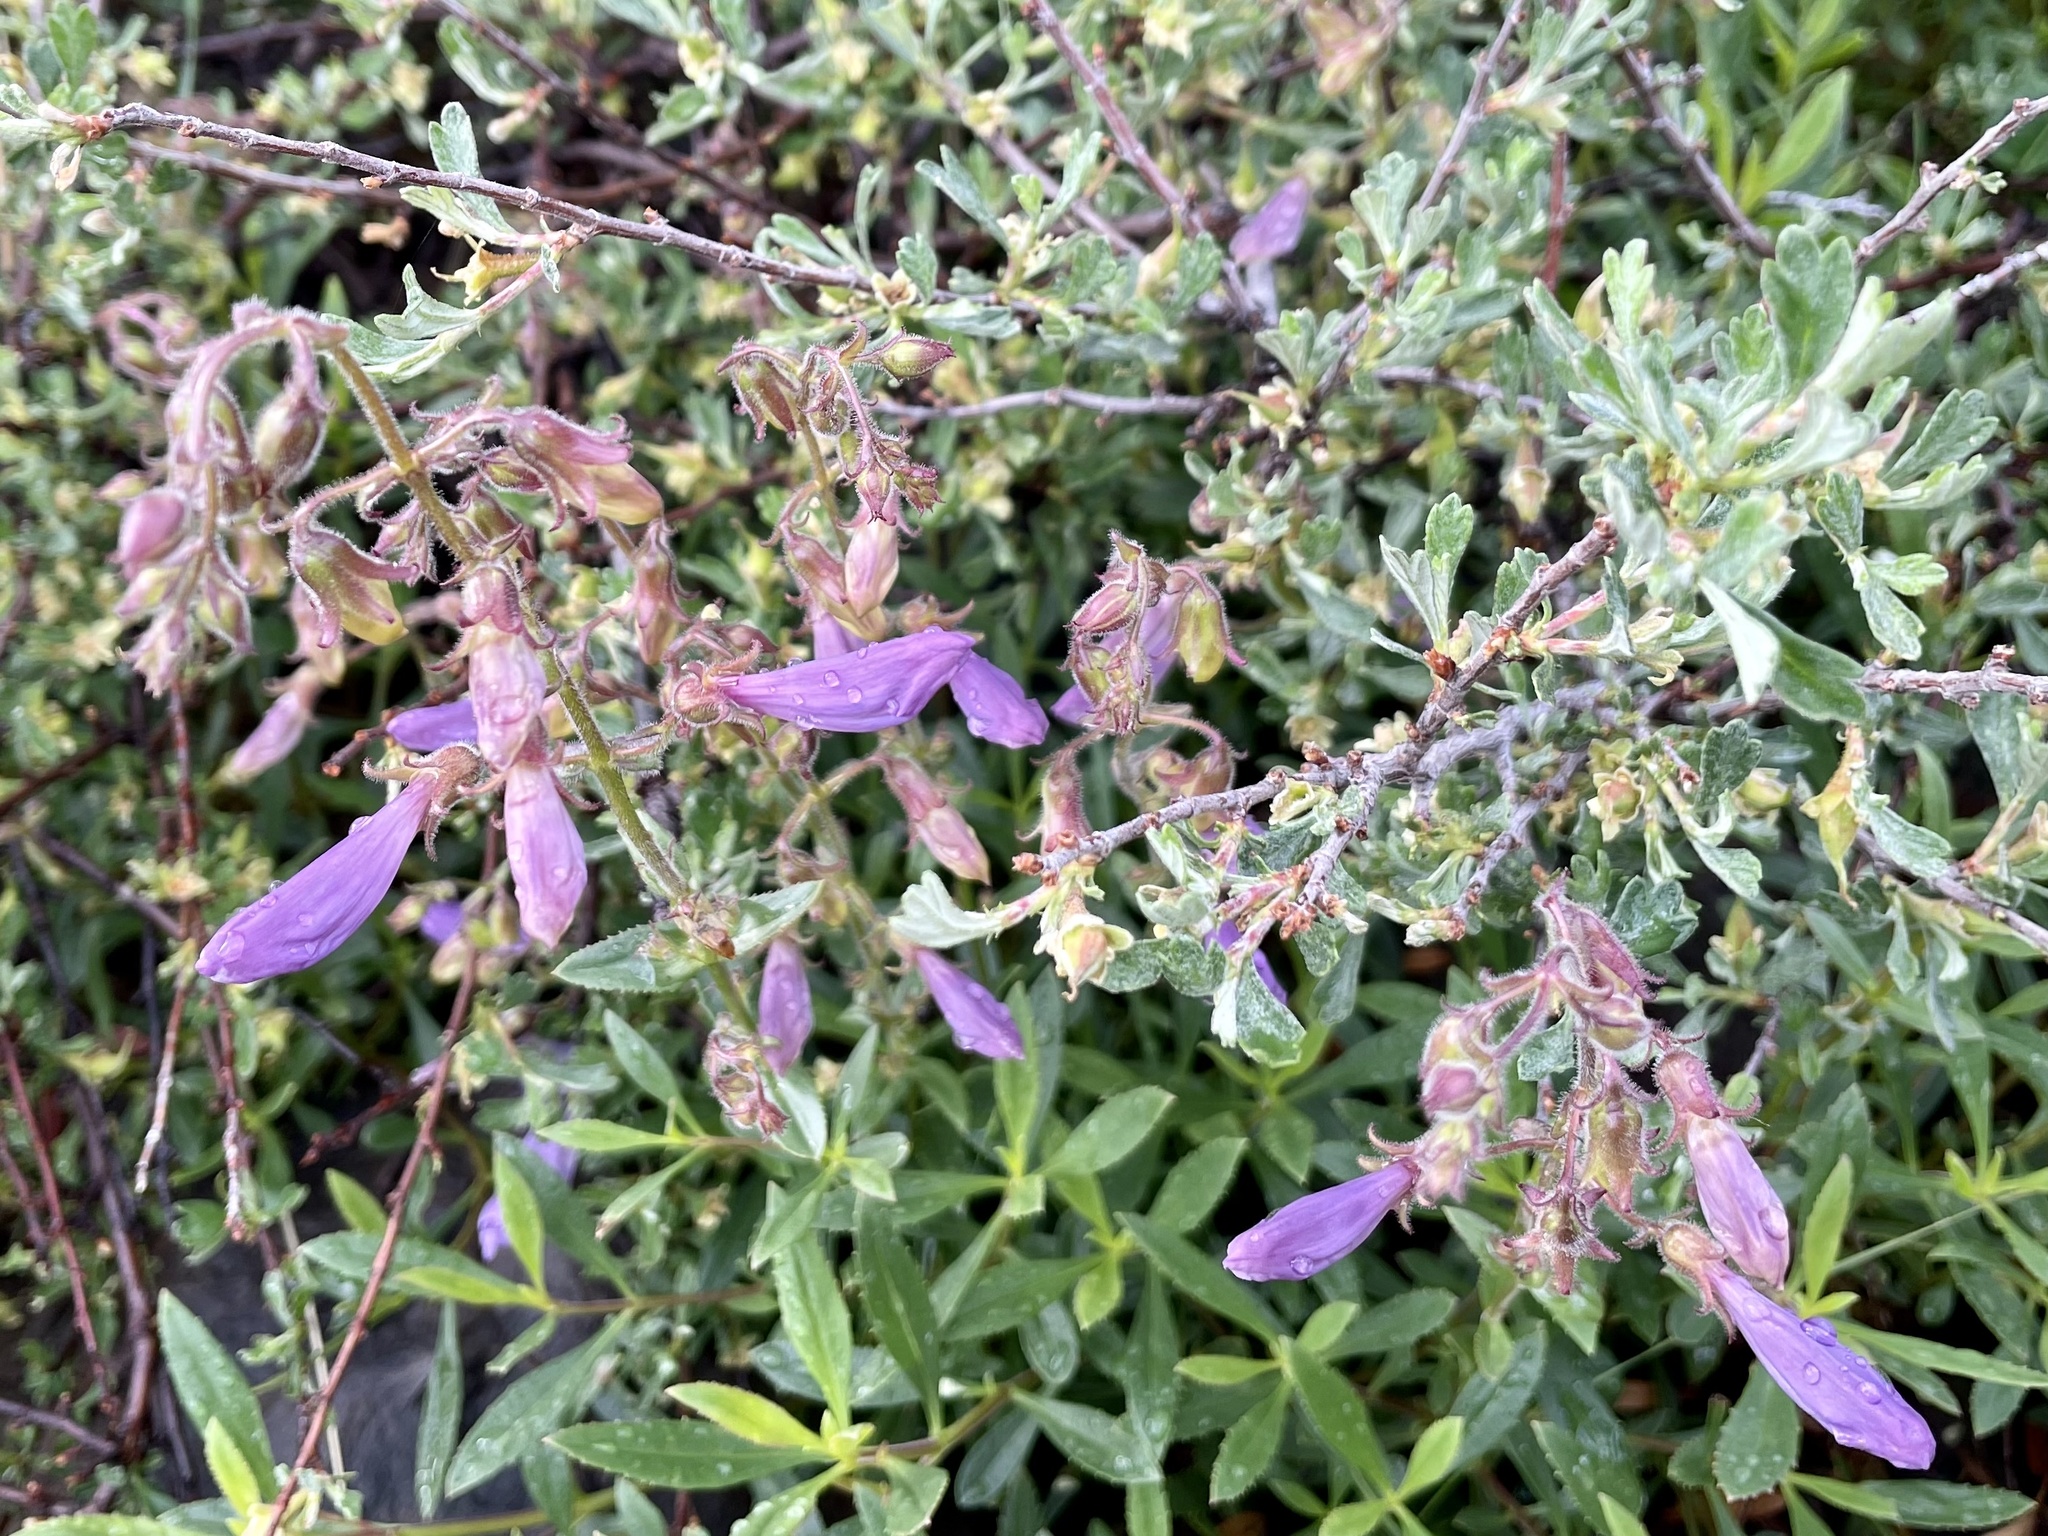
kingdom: Plantae
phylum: Tracheophyta
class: Magnoliopsida
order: Lamiales
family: Plantaginaceae
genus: Penstemon
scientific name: Penstemon cardwellii
